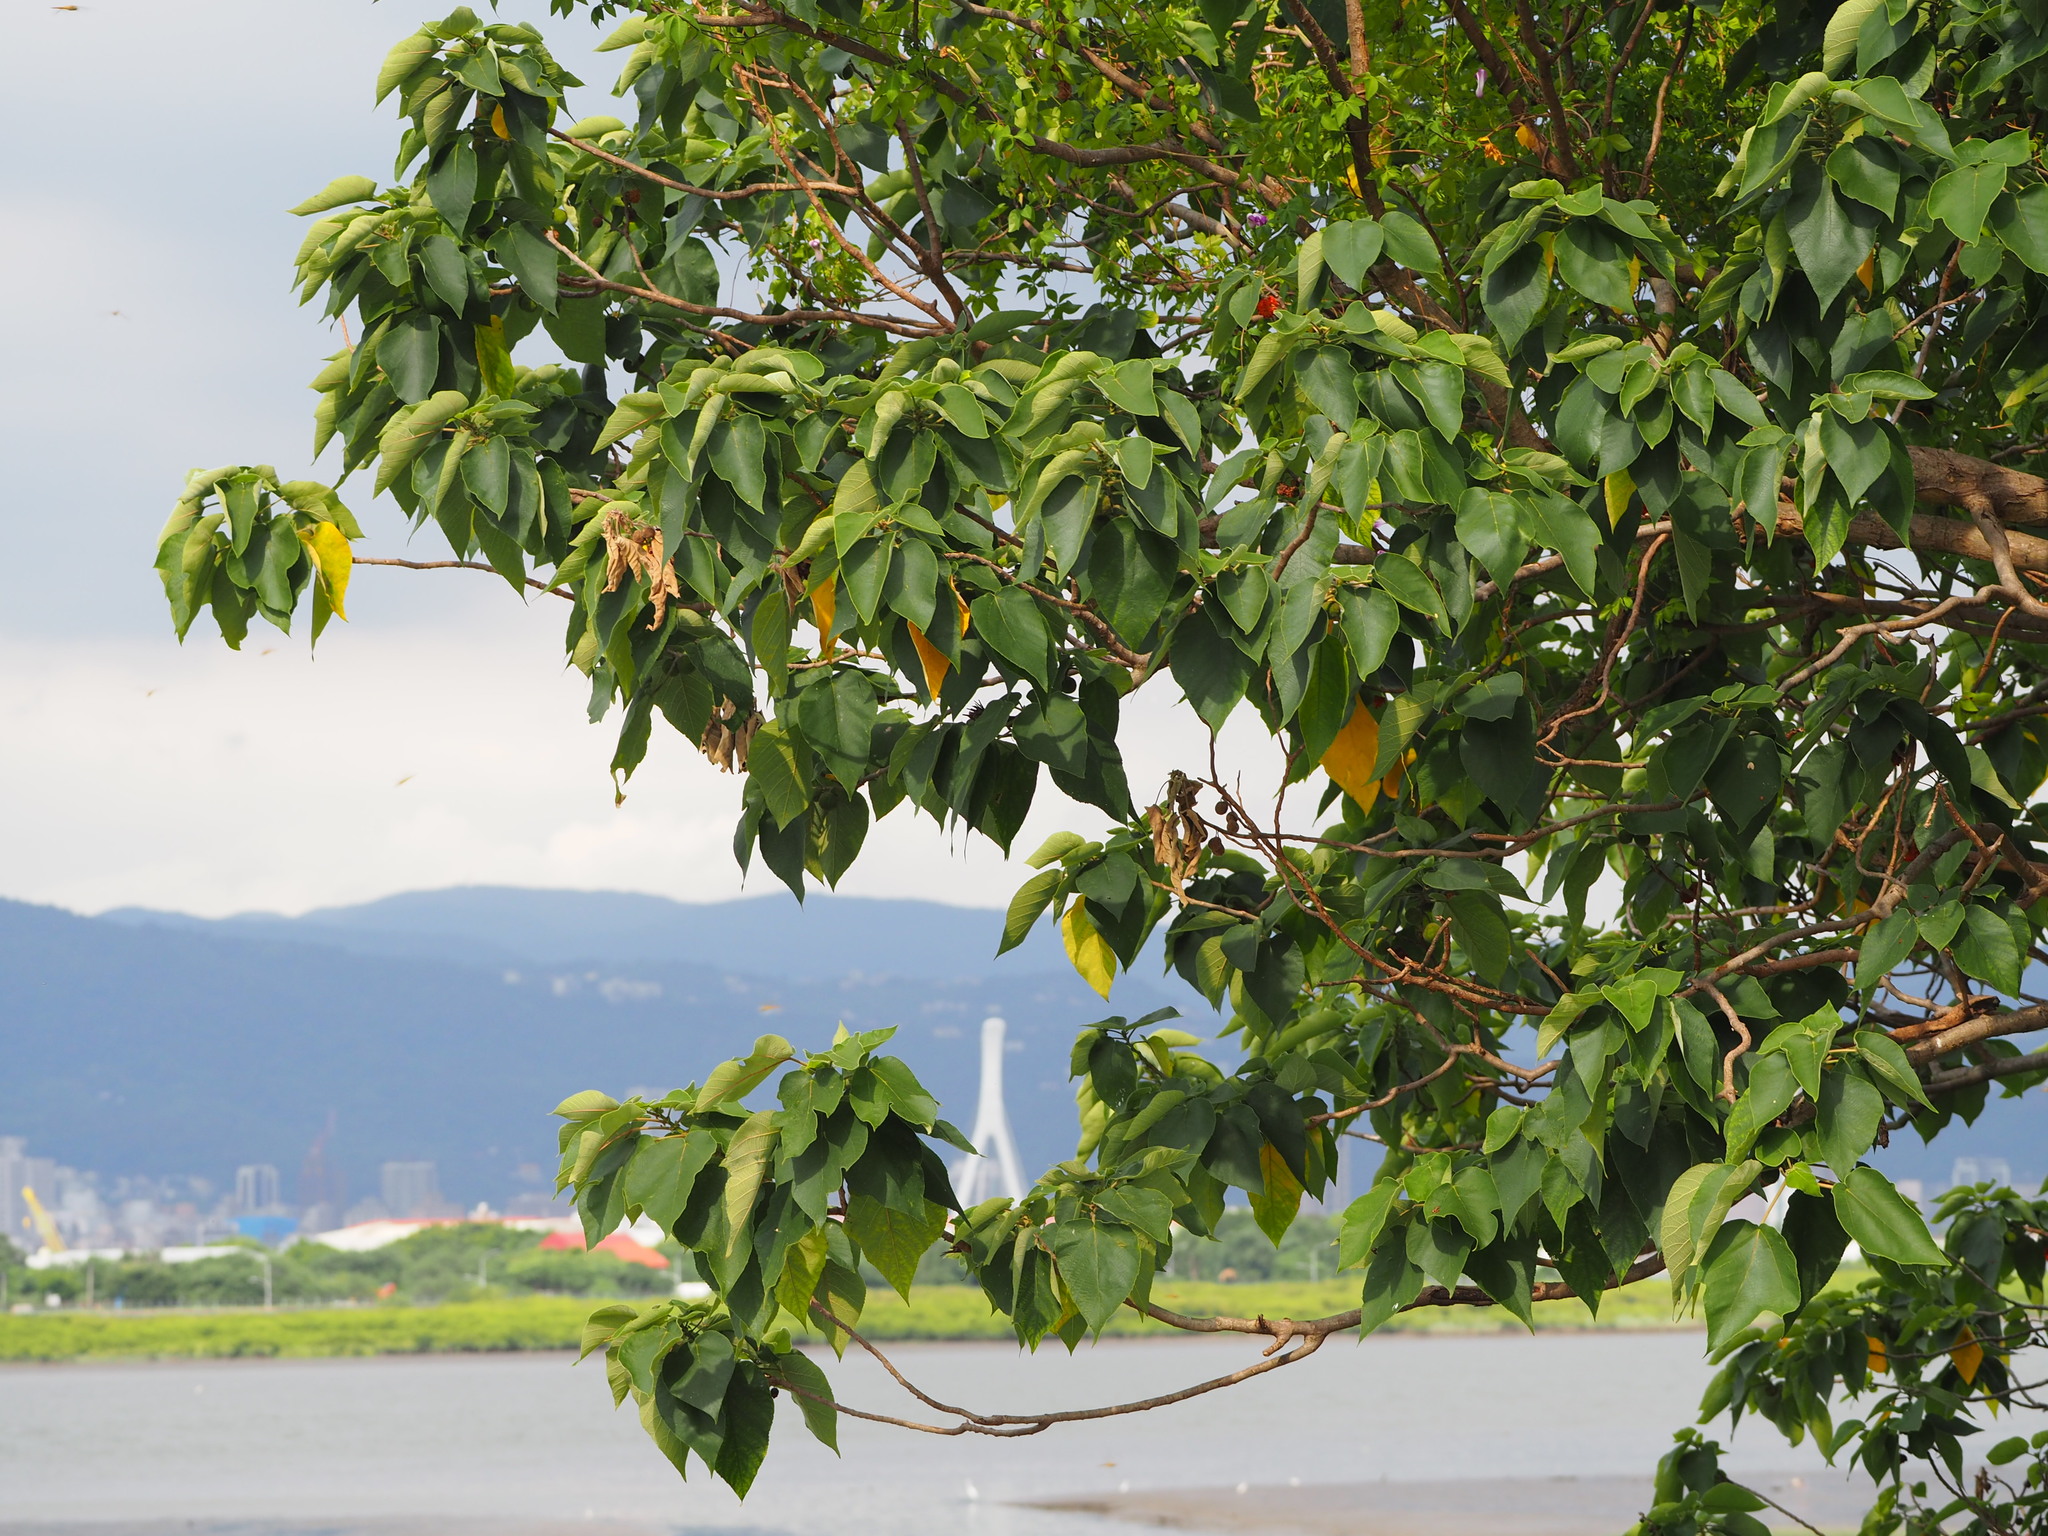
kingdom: Plantae
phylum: Tracheophyta
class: Magnoliopsida
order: Rosales
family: Moraceae
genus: Broussonetia
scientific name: Broussonetia papyrifera
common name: Paper mulberry
